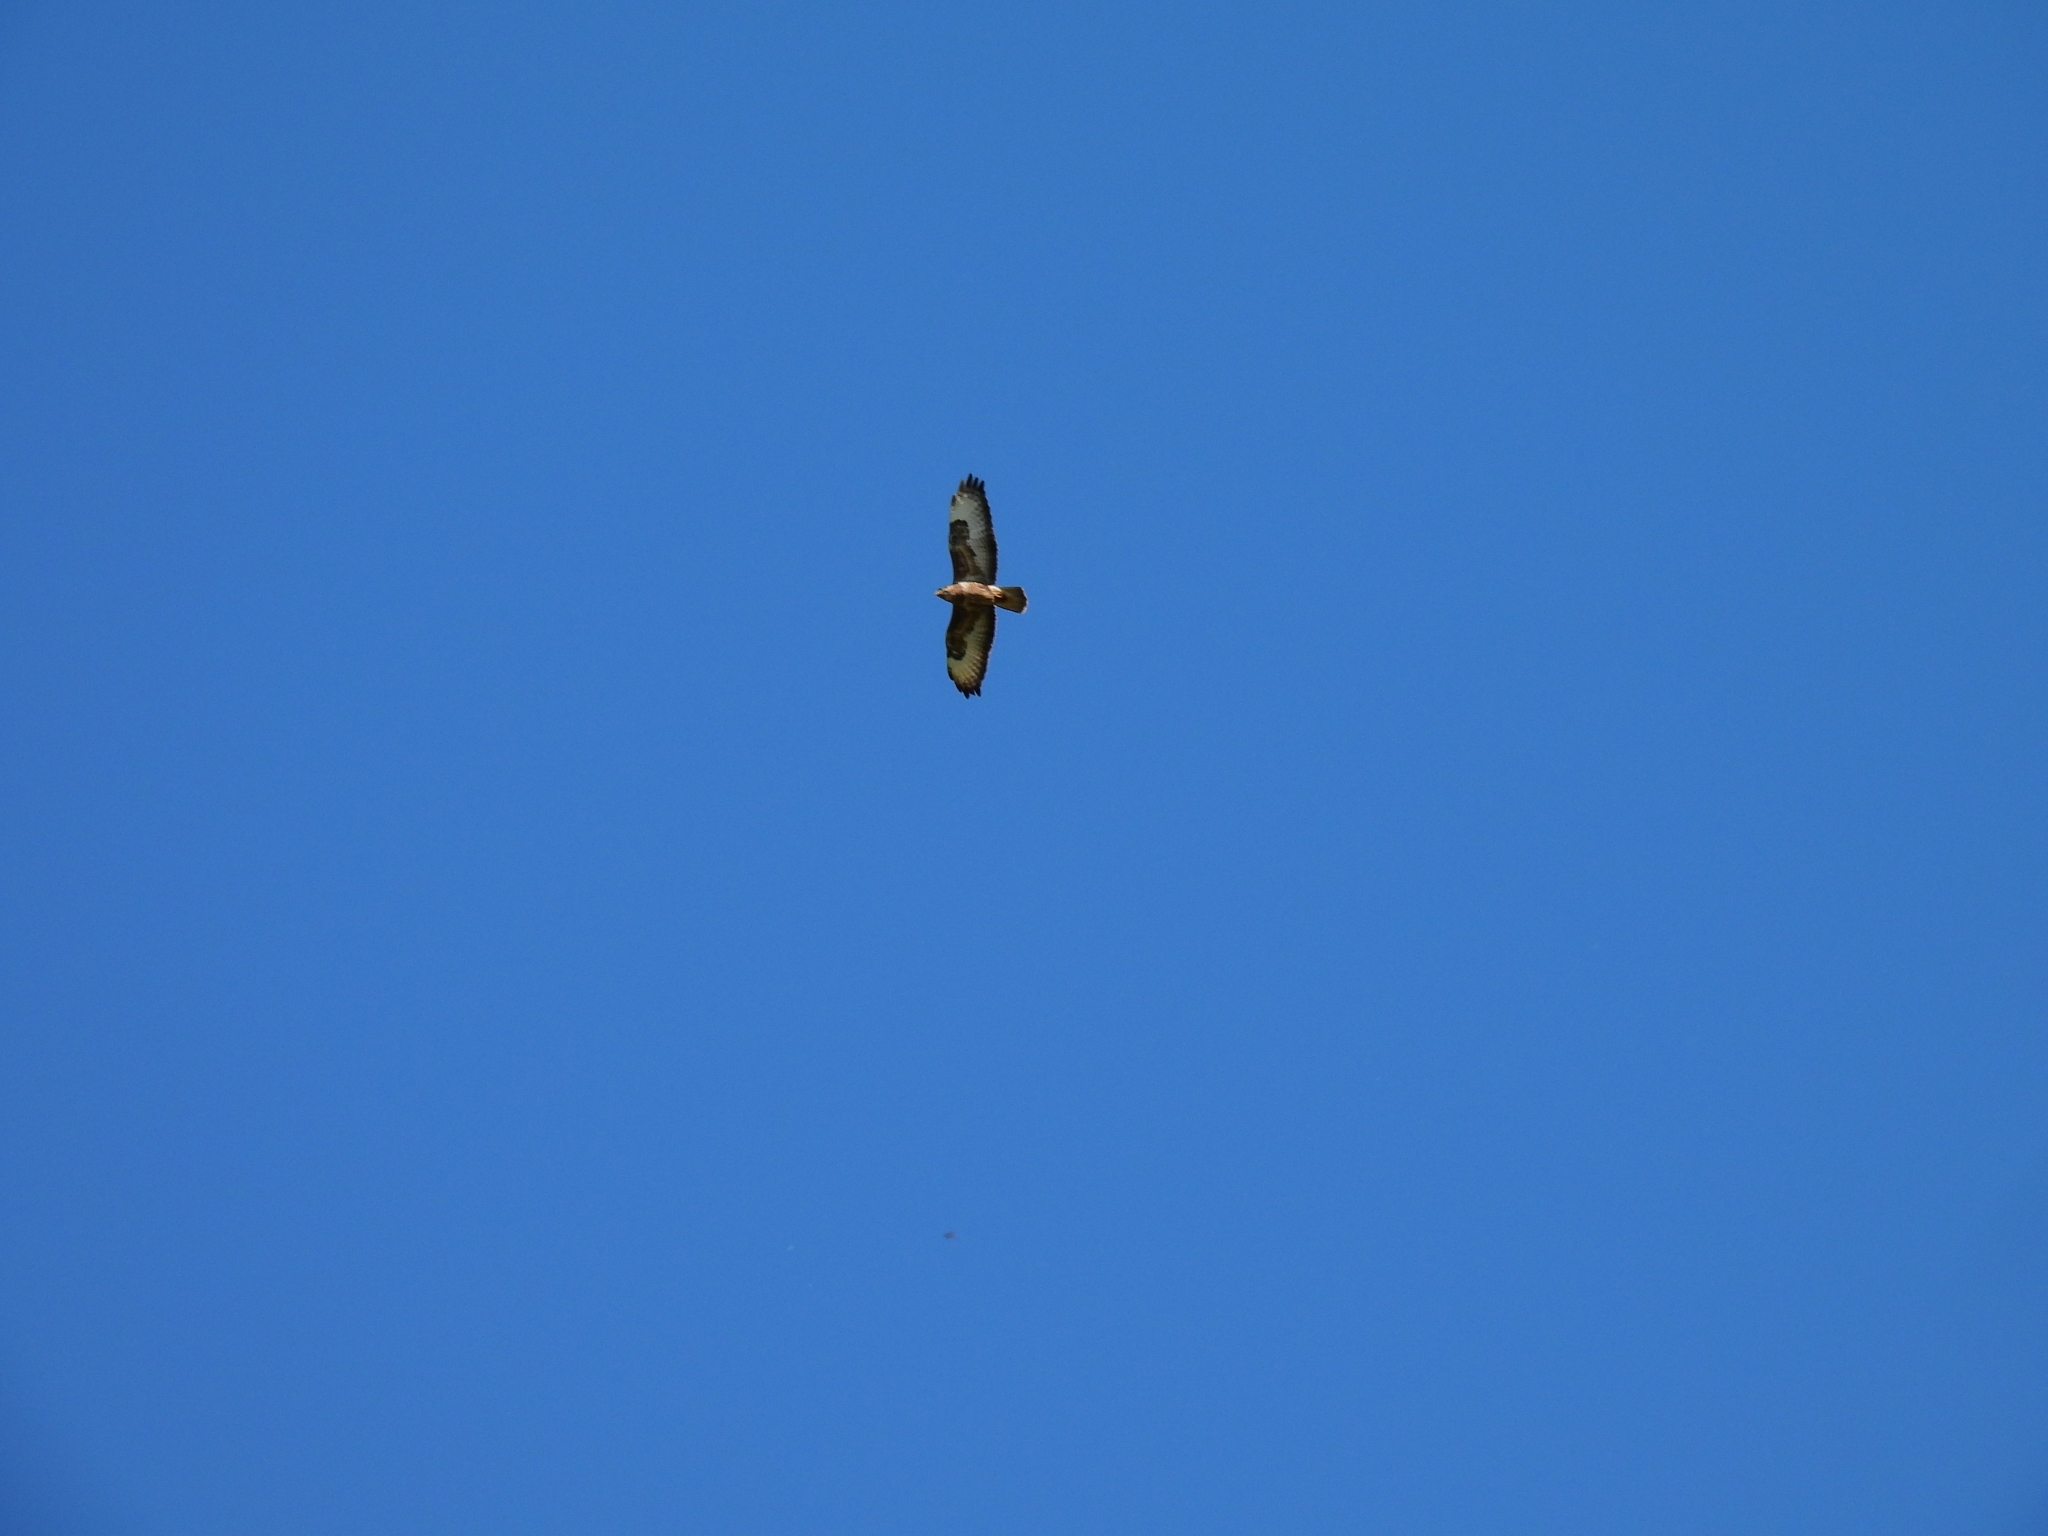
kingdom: Animalia
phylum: Chordata
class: Aves
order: Accipitriformes
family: Accipitridae
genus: Buteo
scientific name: Buteo buteo
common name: Common buzzard
